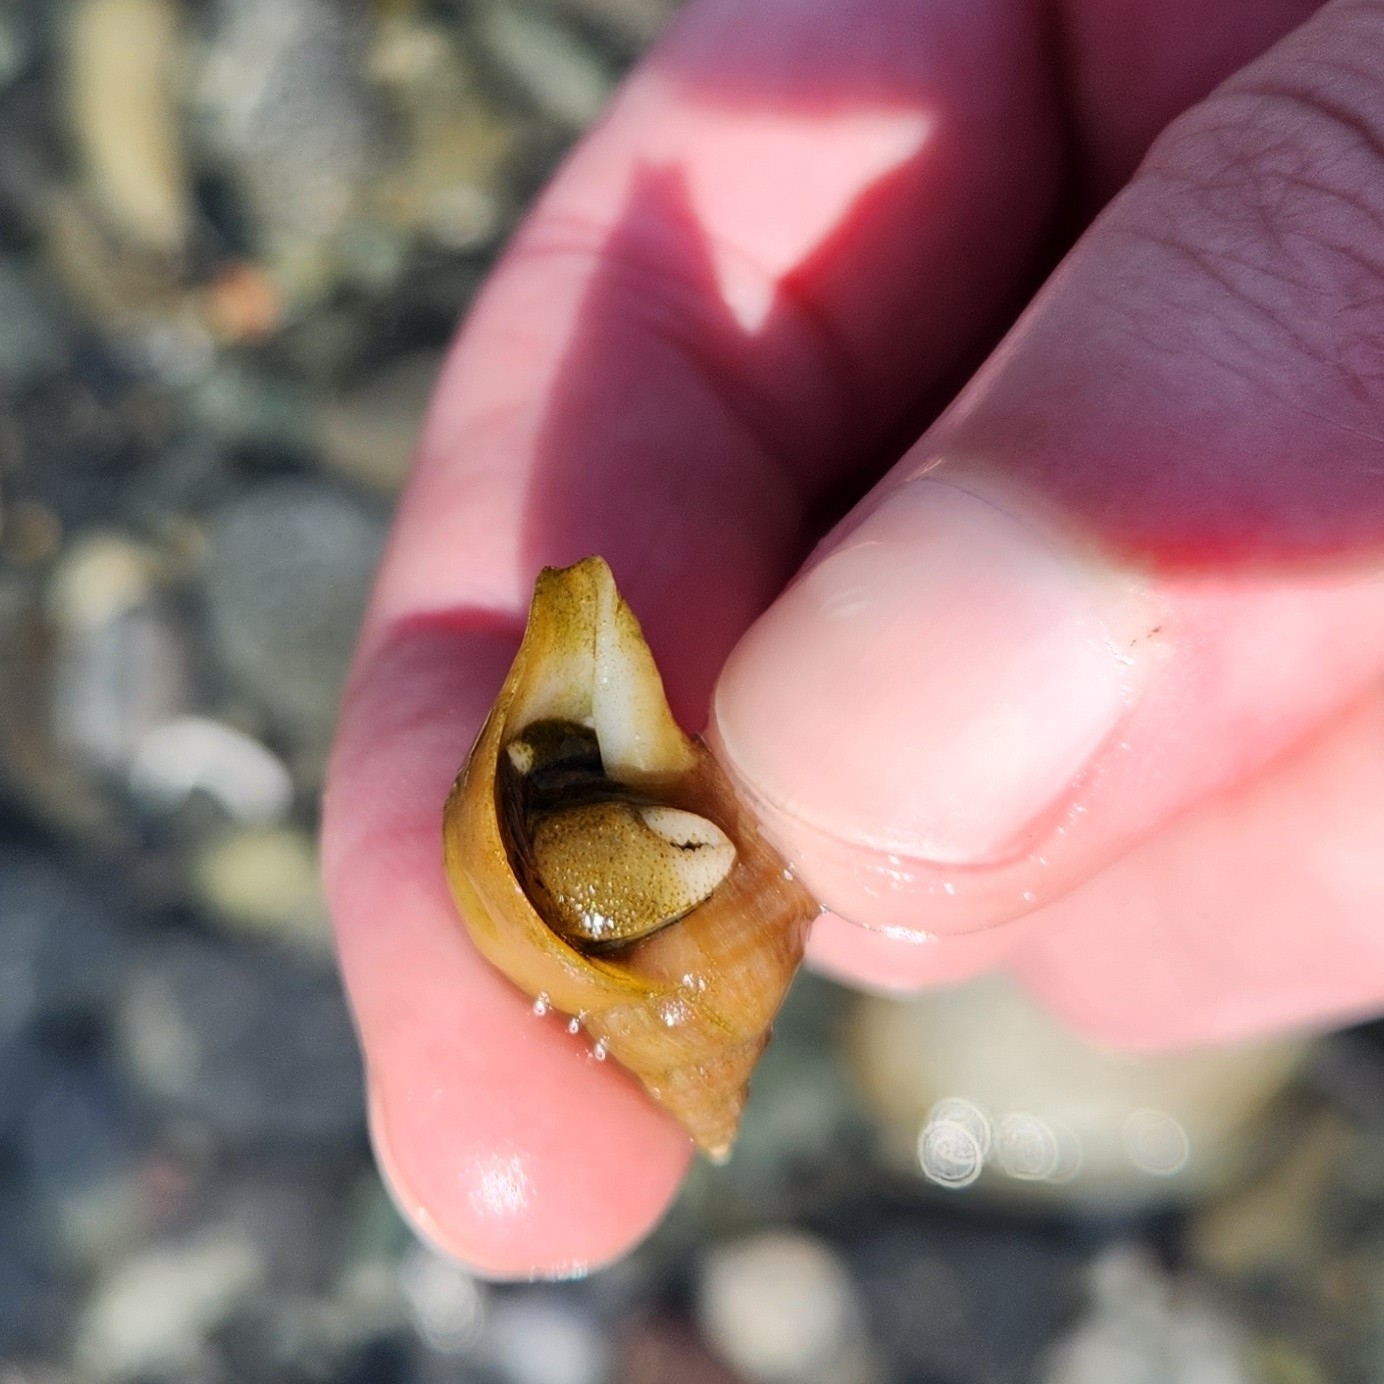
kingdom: Animalia
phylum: Arthropoda
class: Malacostraca
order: Decapoda
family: Paguridae
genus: Pagurus
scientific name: Pagurus hirsutiusculus
